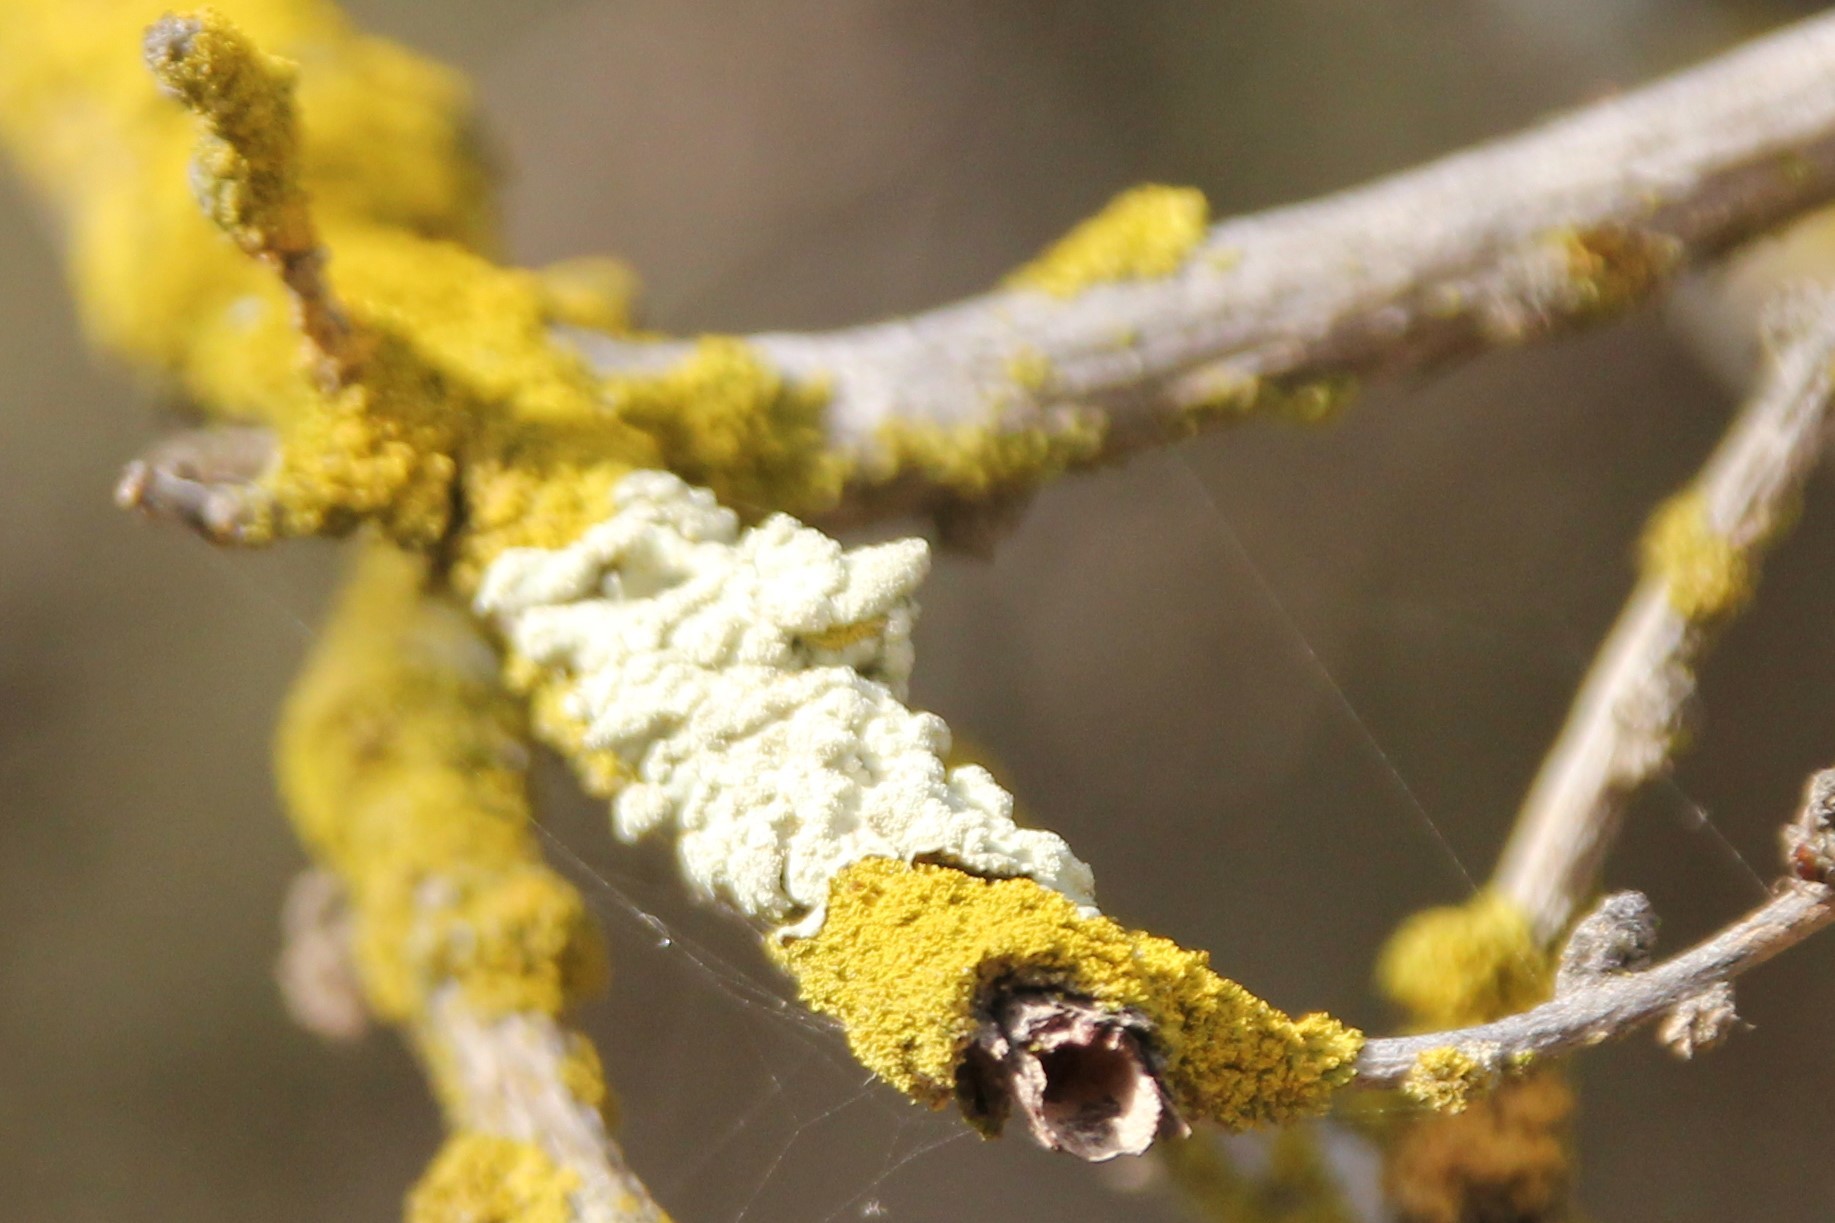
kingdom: Fungi
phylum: Ascomycota
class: Lecanoromycetes
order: Lecanorales
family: Parmeliaceae
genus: Flavoparmelia
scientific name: Flavoparmelia caperata
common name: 40-mile per hour lichen
